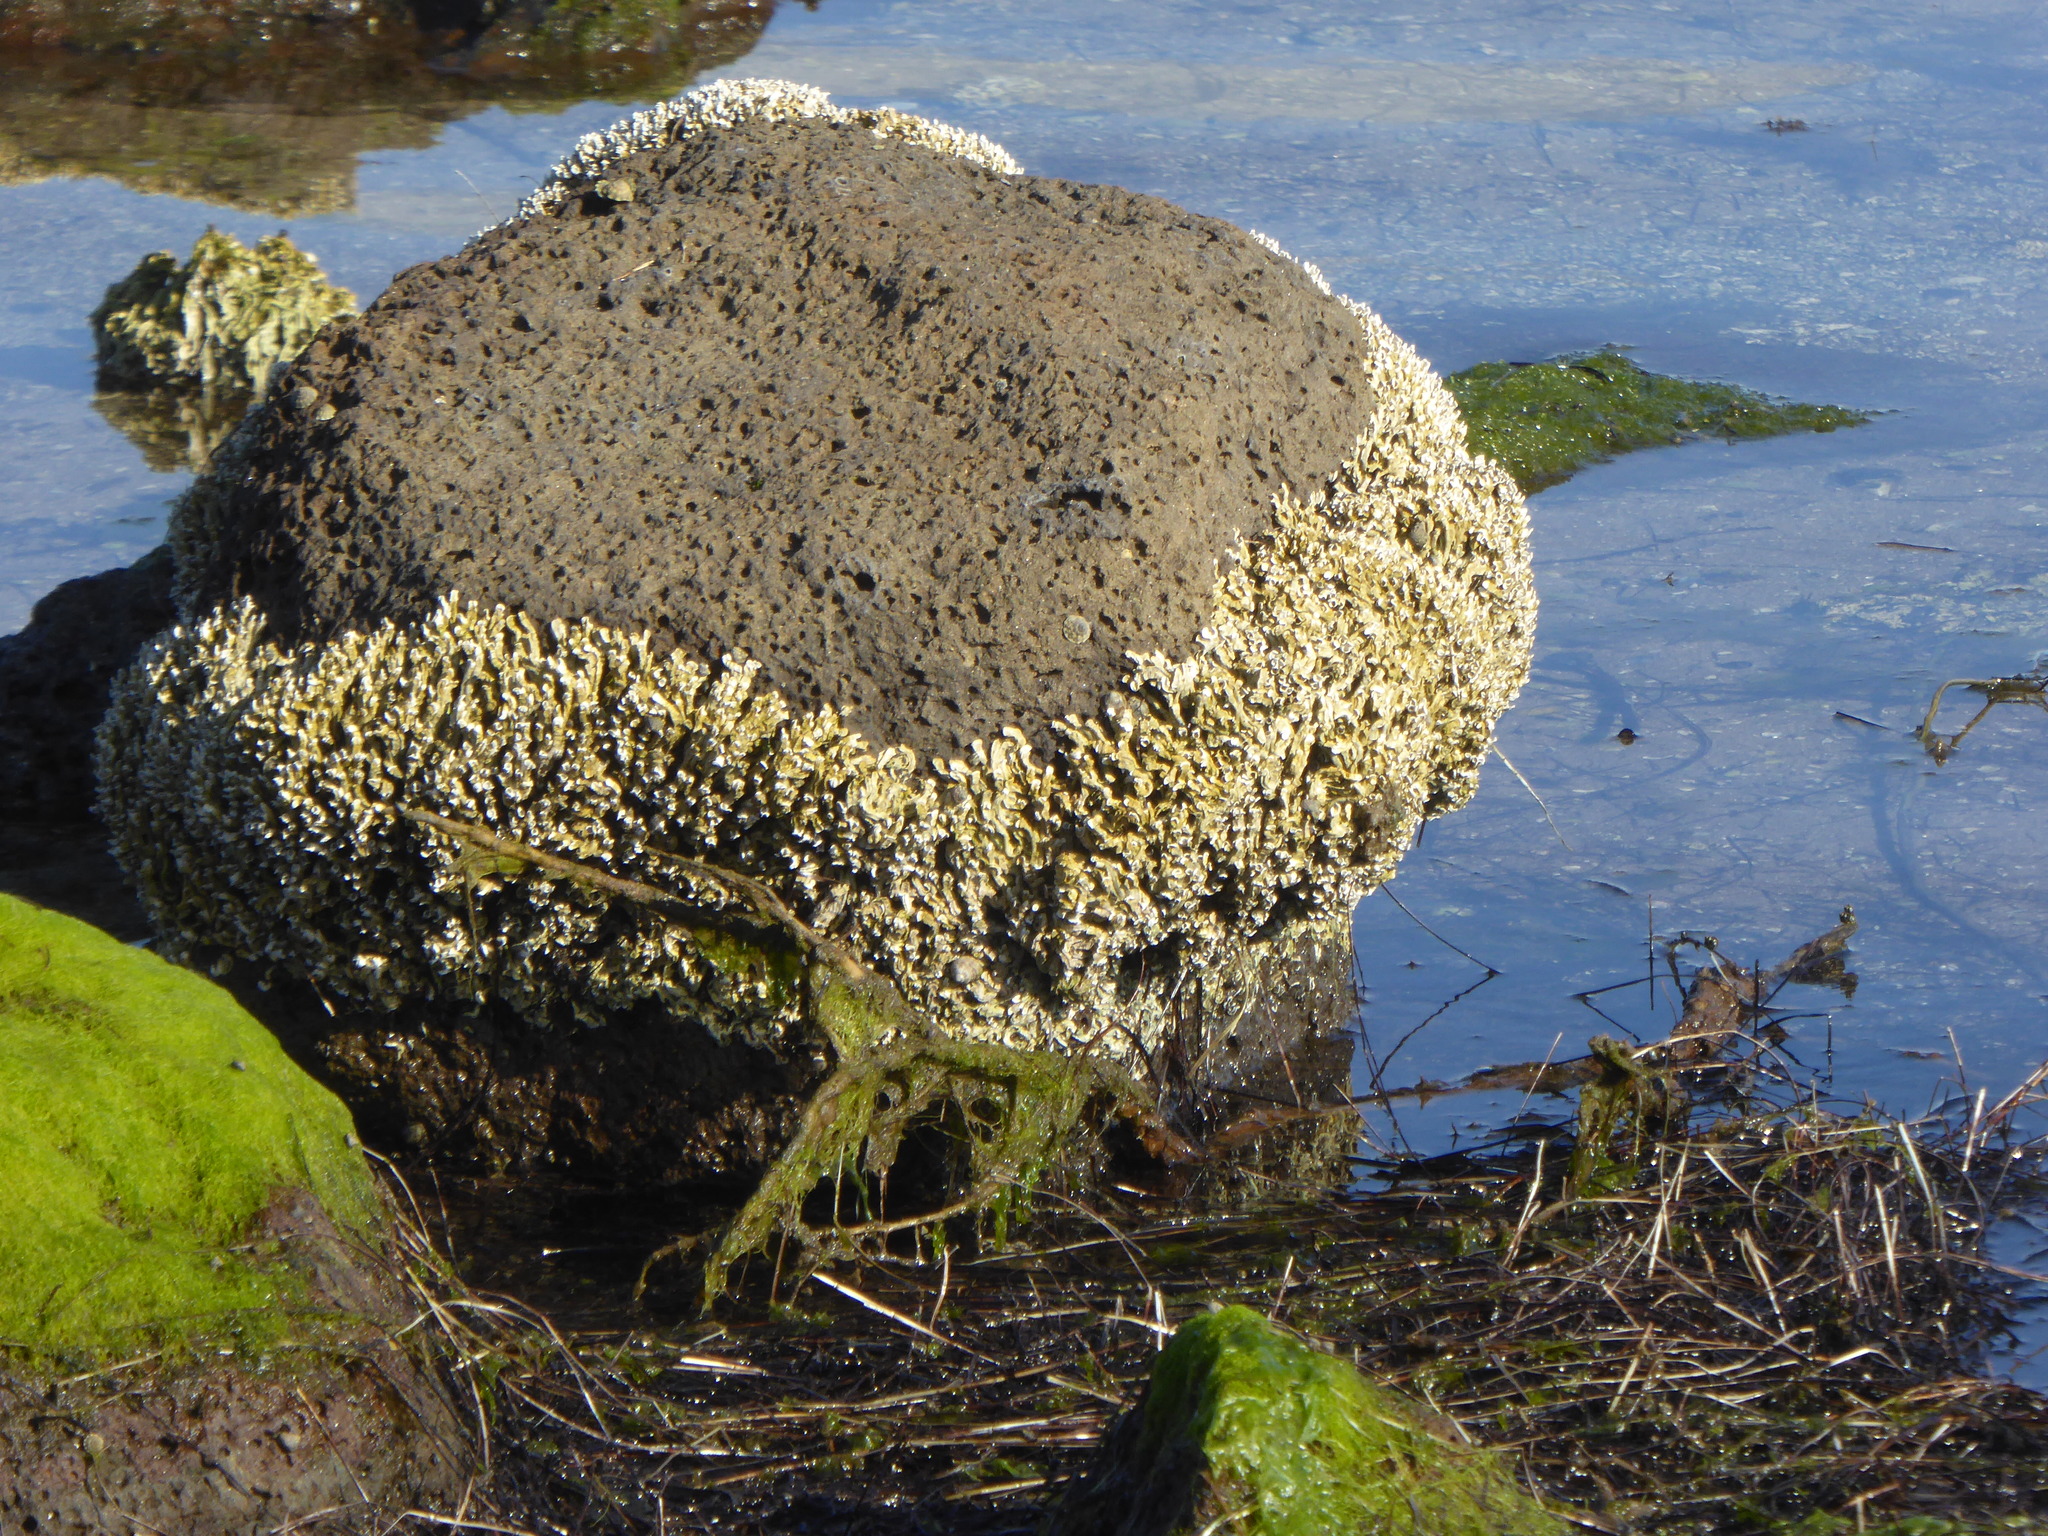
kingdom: Animalia
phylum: Annelida
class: Polychaeta
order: Sabellida
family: Serpulidae
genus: Galeolaria
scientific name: Galeolaria caespitosa
